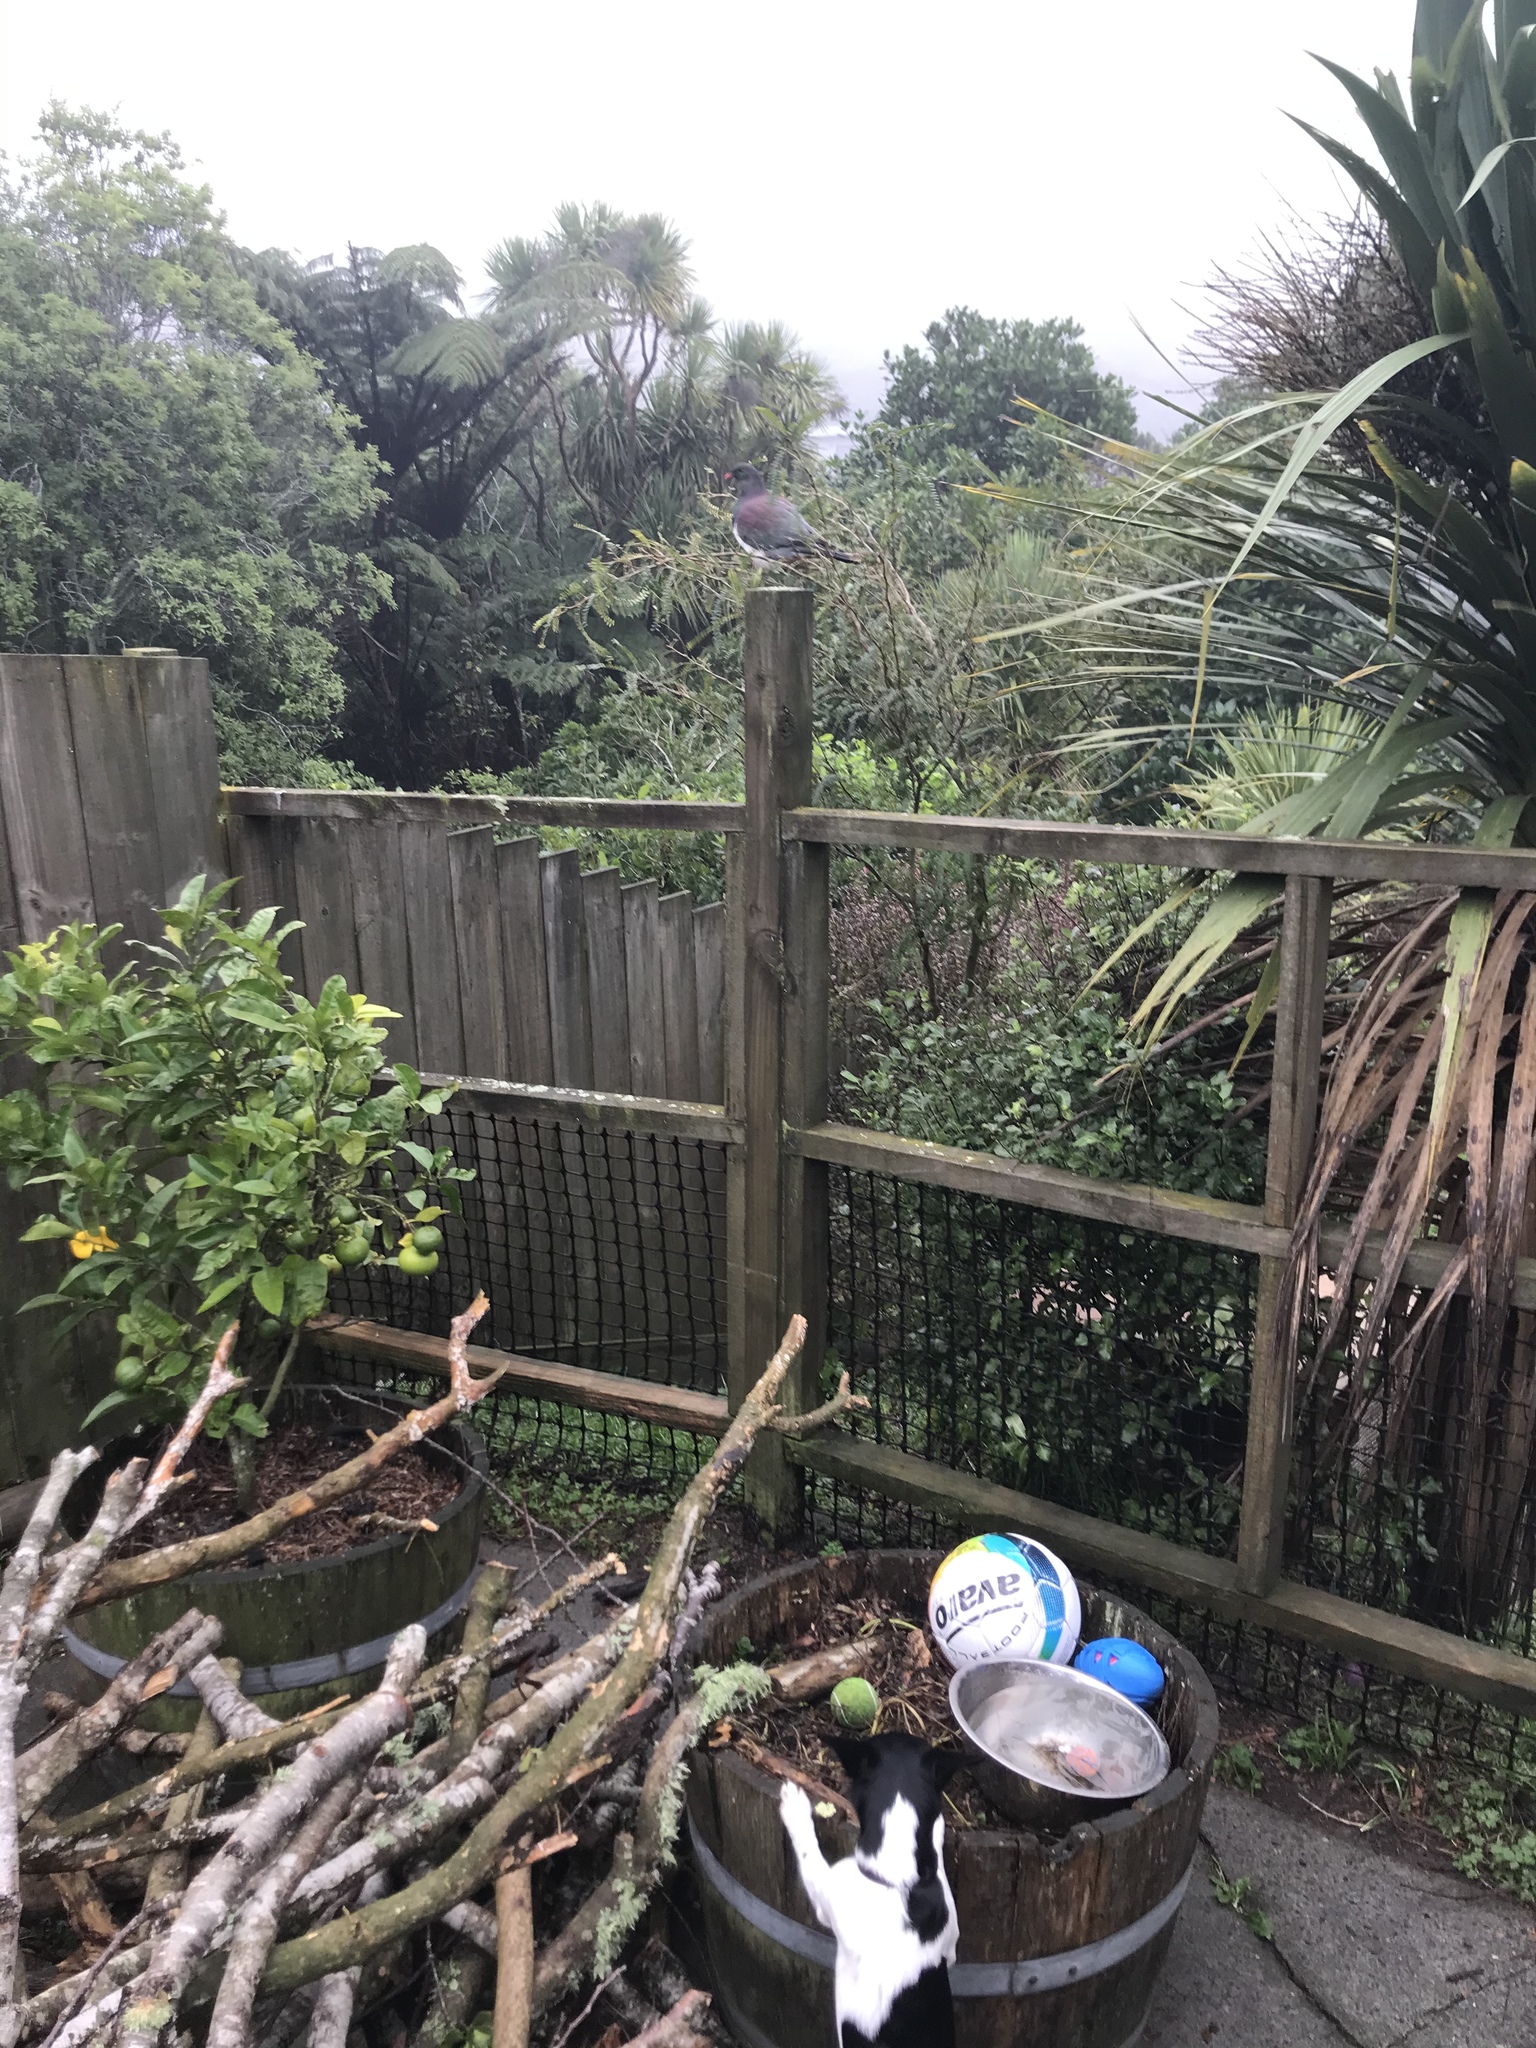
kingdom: Animalia
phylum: Chordata
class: Aves
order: Columbiformes
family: Columbidae
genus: Hemiphaga
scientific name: Hemiphaga novaeseelandiae
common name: New zealand pigeon
